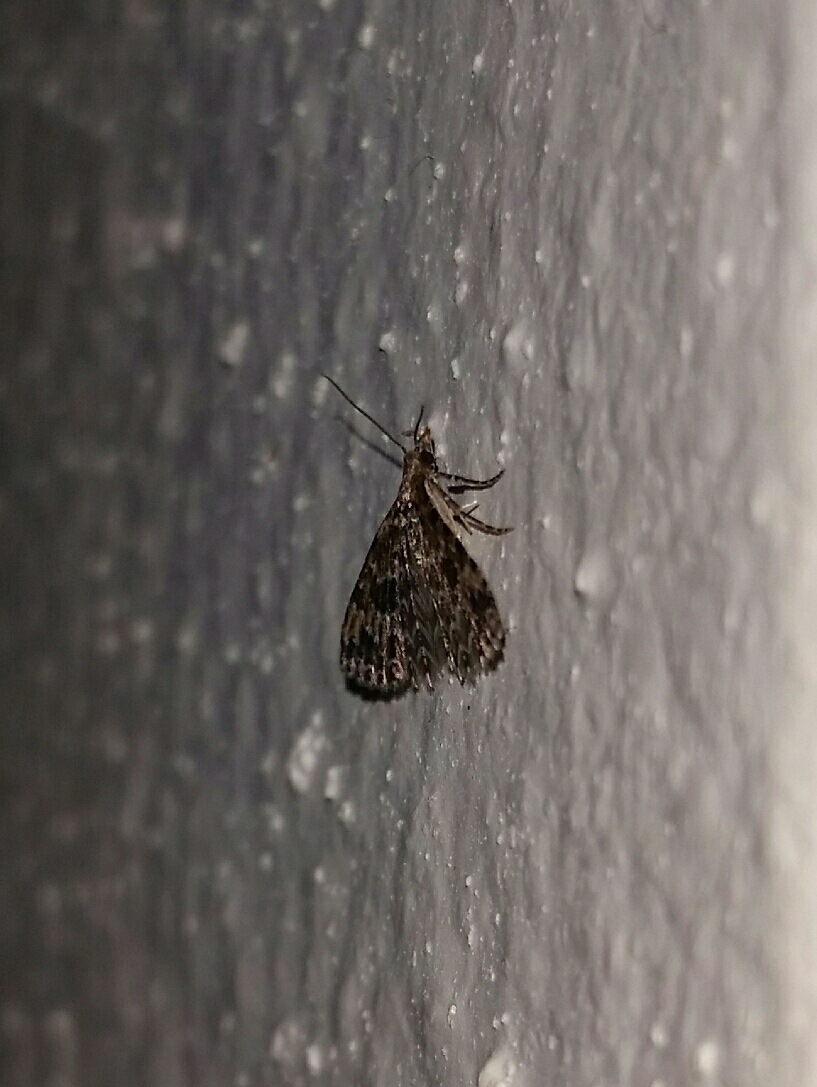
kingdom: Animalia
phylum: Arthropoda
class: Insecta
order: Lepidoptera
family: Alucitidae
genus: Alucita
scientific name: Alucita montana
